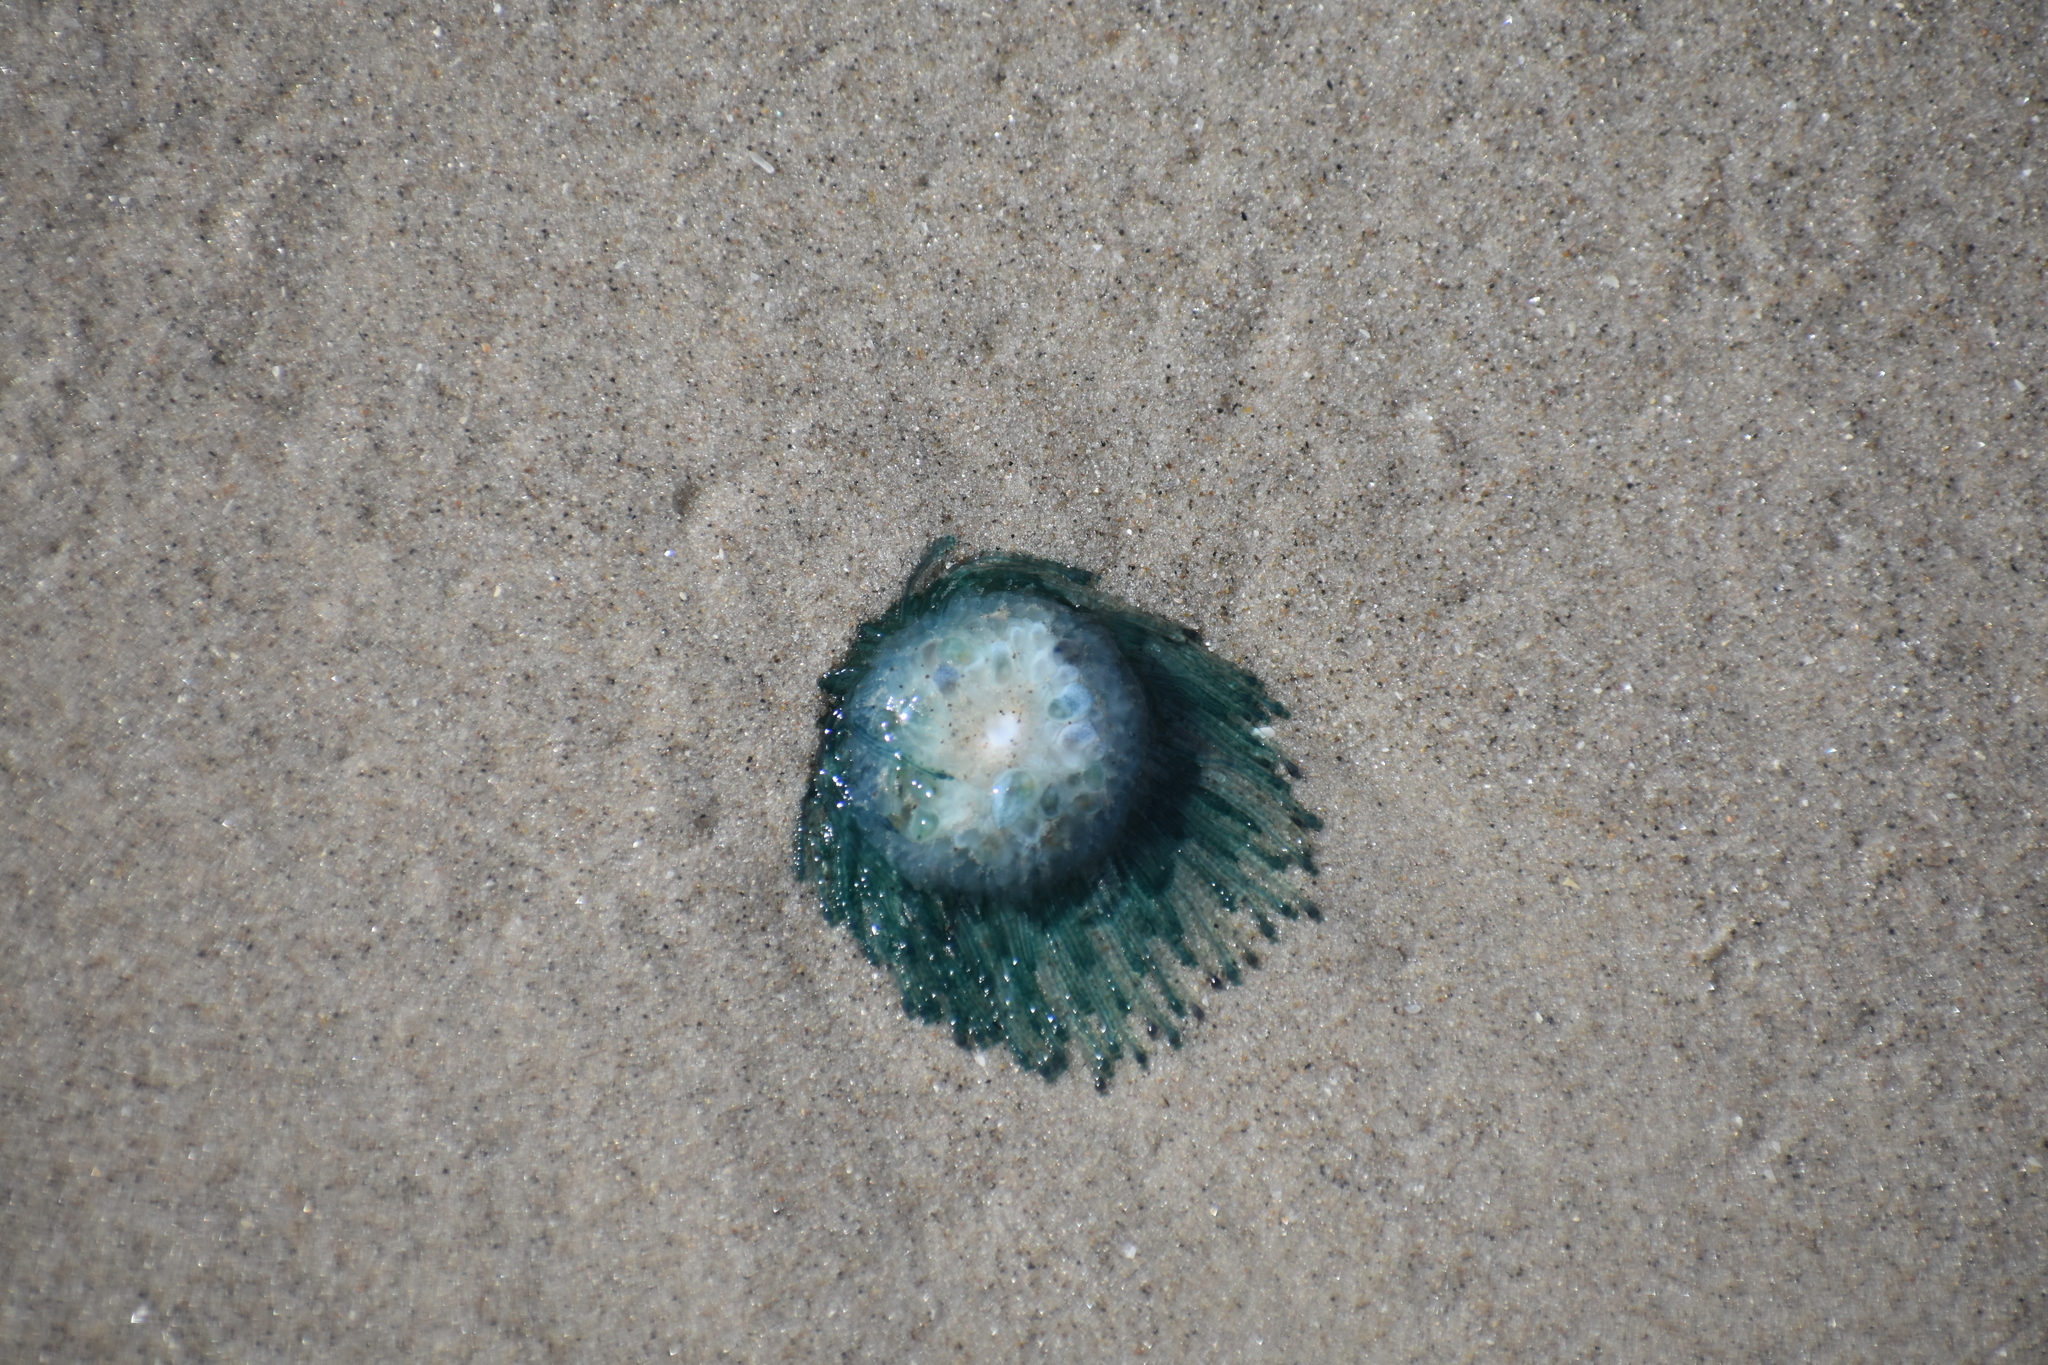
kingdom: Animalia
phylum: Cnidaria
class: Hydrozoa
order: Anthoathecata
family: Porpitidae
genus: Porpita
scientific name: Porpita porpita
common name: Blue button
